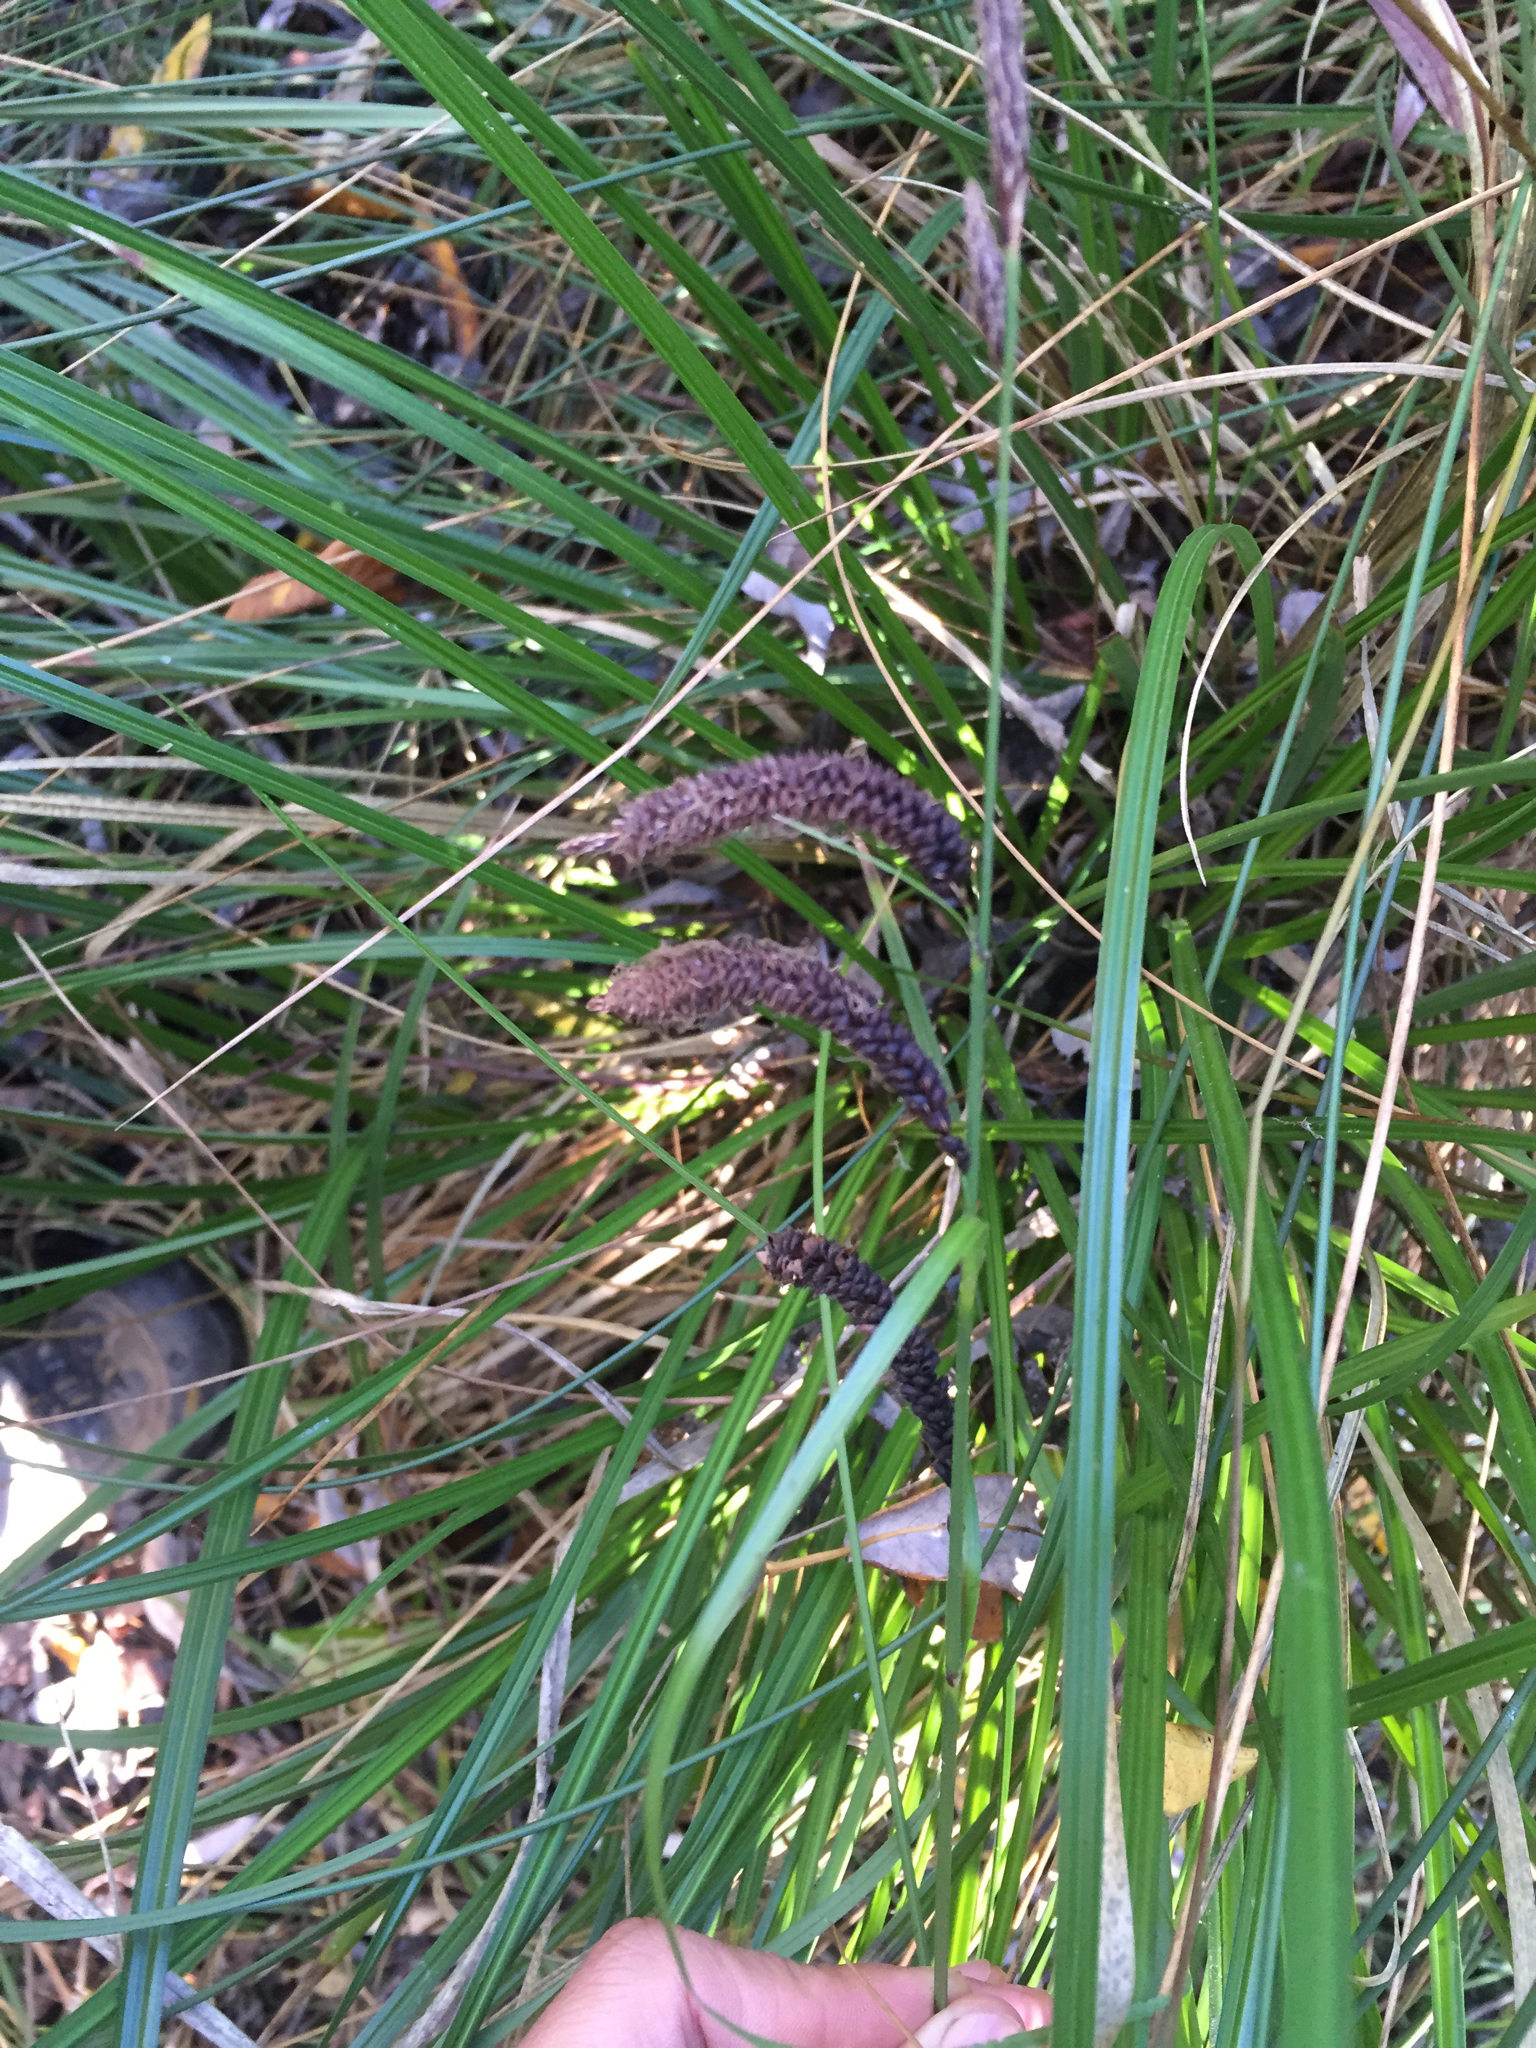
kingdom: Plantae
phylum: Tracheophyta
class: Liliopsida
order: Poales
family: Cyperaceae
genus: Carex
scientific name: Carex obnupta
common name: Slough sedge
